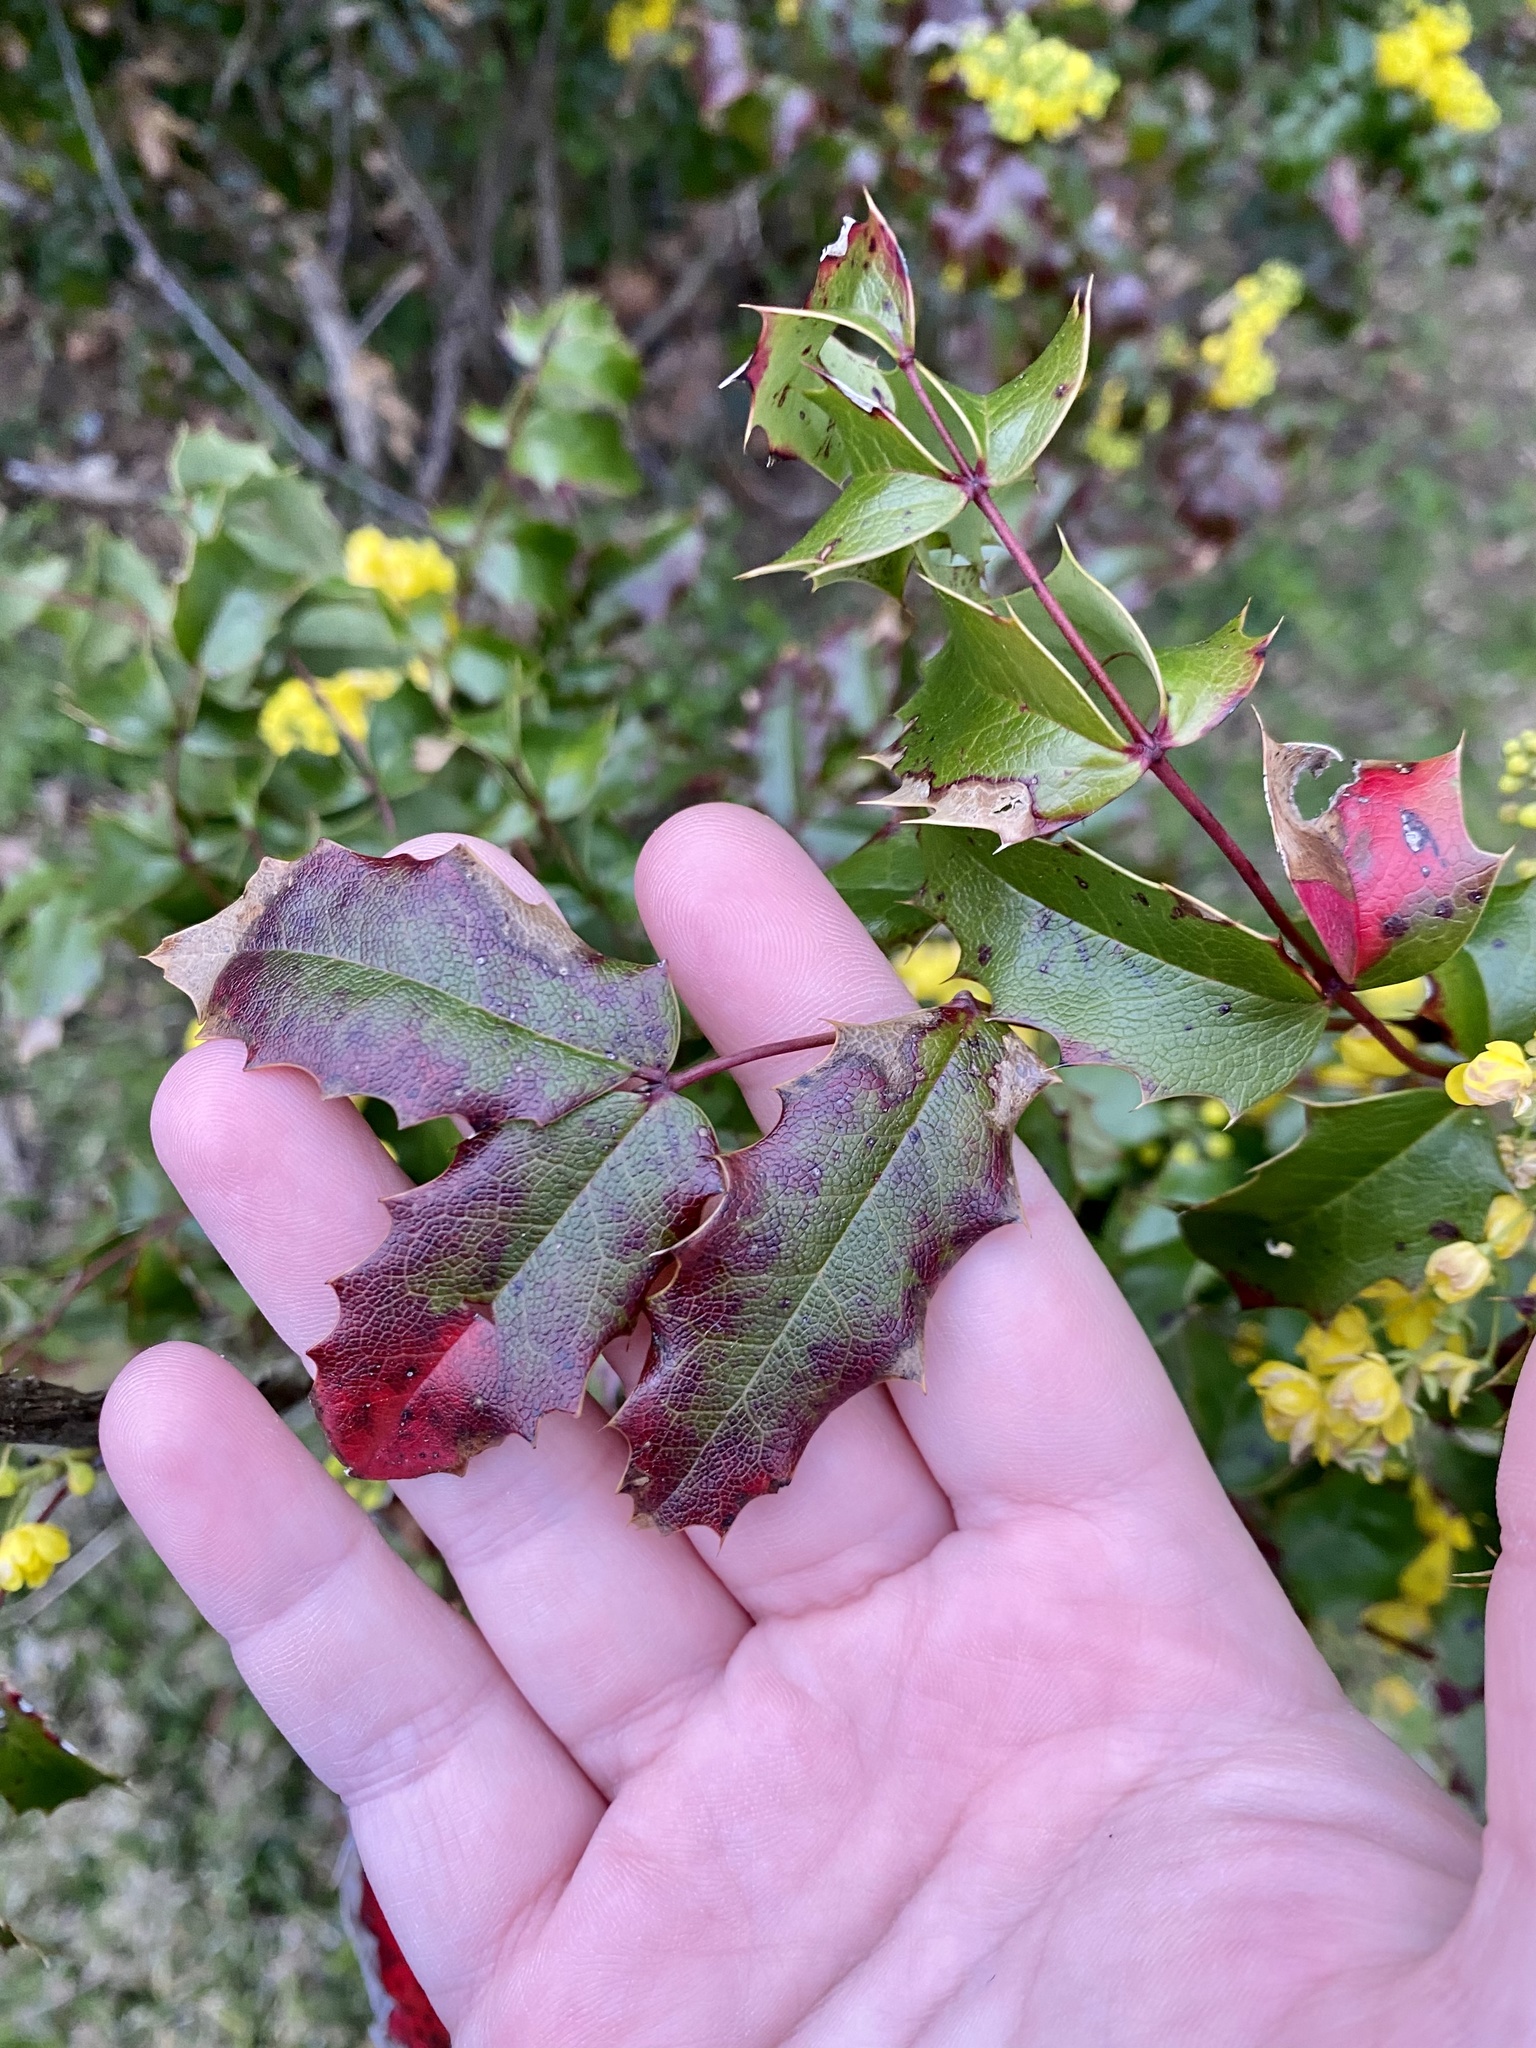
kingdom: Plantae
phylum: Tracheophyta
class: Magnoliopsida
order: Ranunculales
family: Berberidaceae
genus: Mahonia
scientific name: Mahonia aquifolium
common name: Oregon-grape
